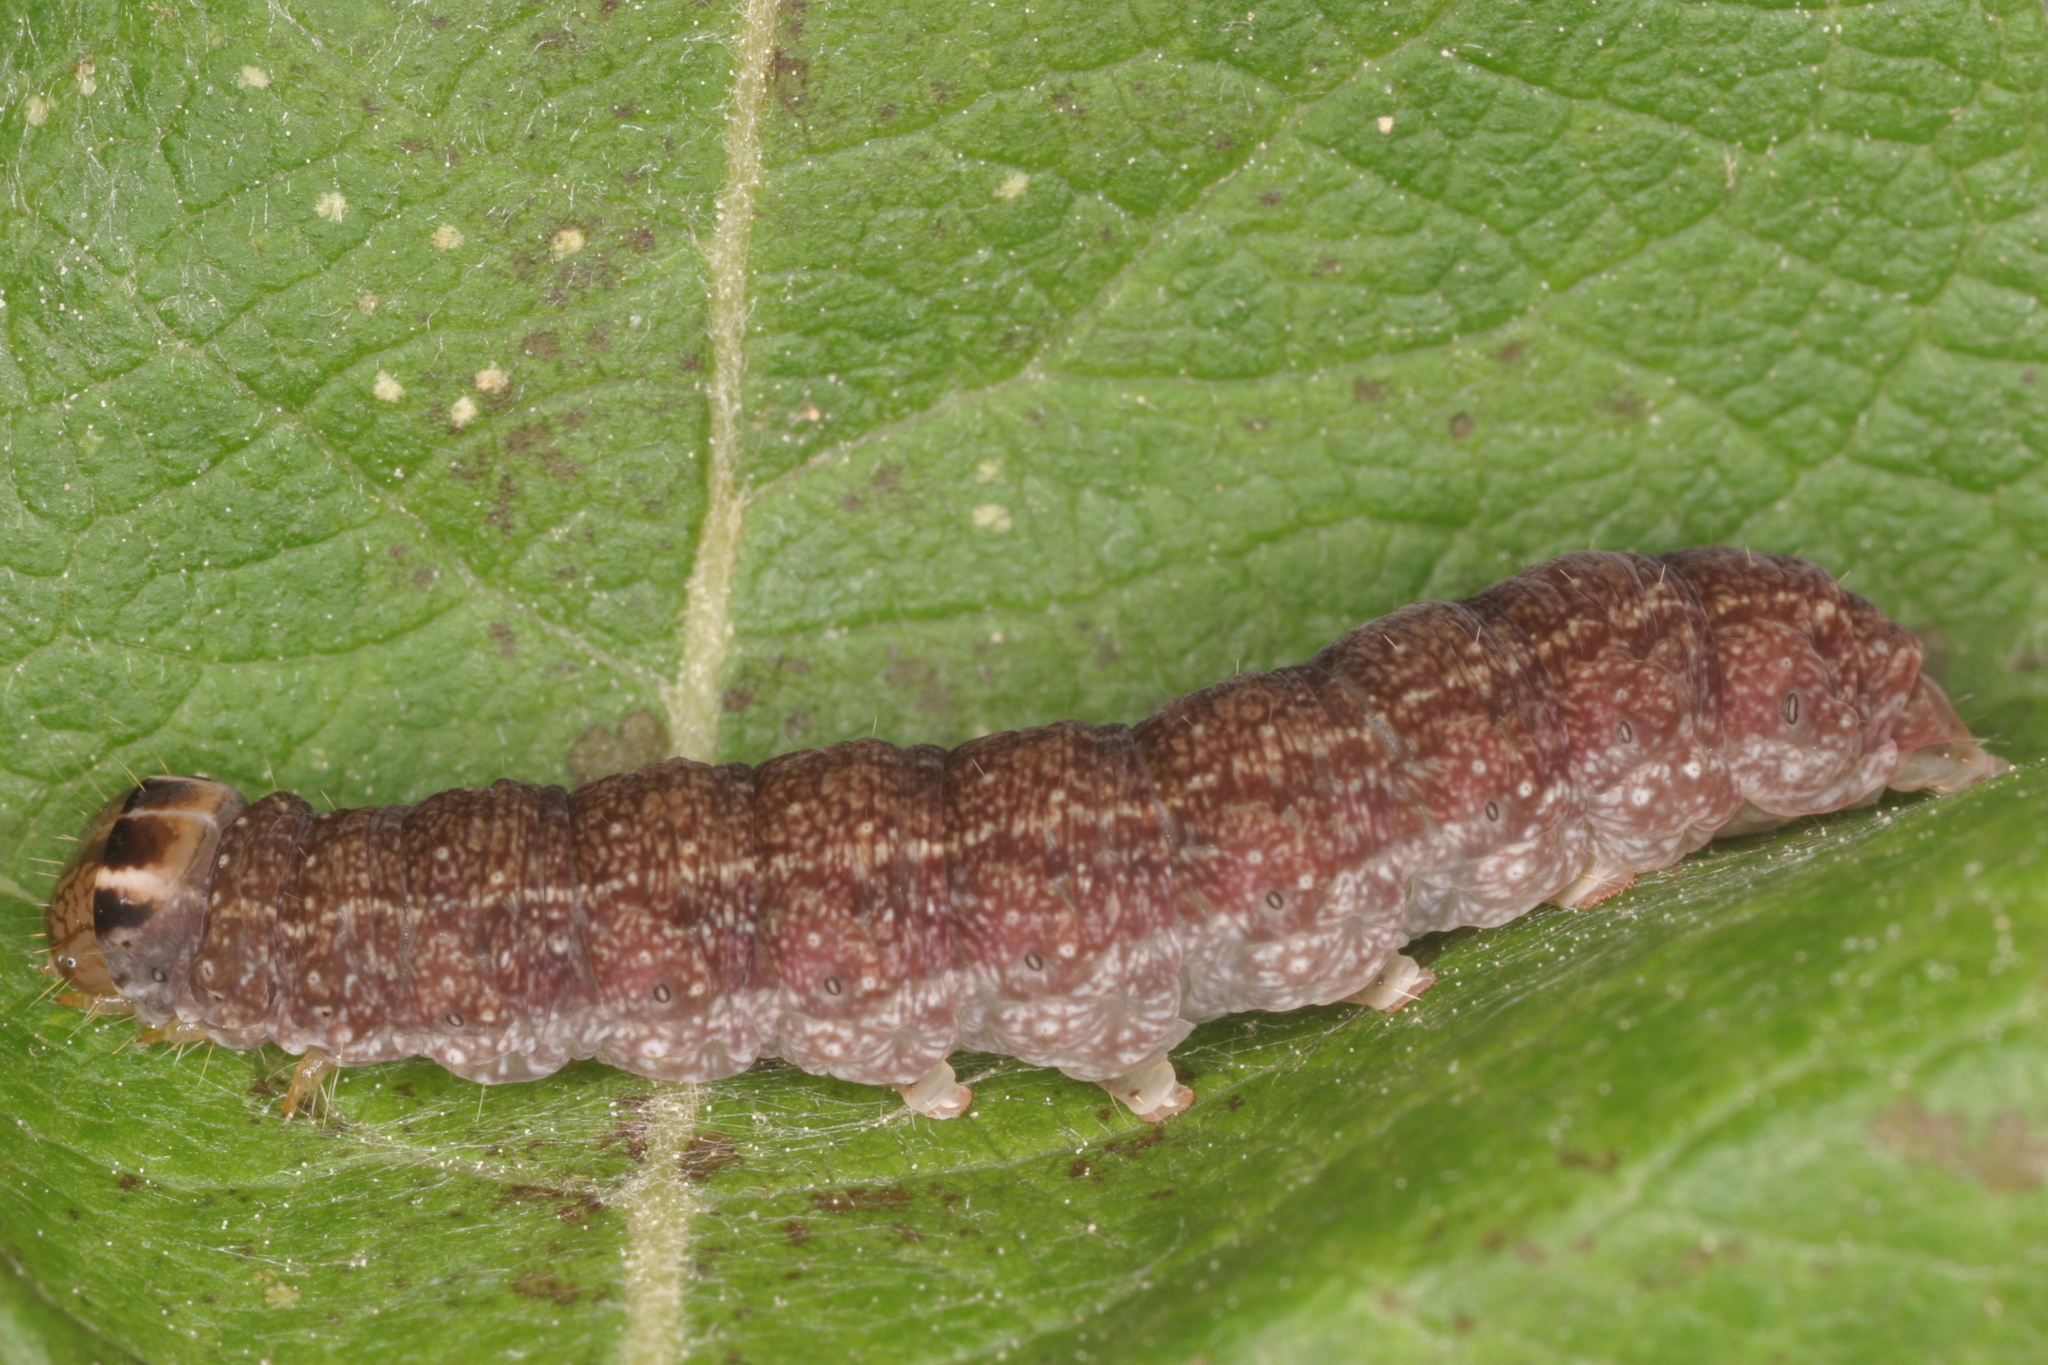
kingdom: Animalia
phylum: Arthropoda
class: Insecta
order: Lepidoptera
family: Noctuidae
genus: Conistra
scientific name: Conistra vaccinii
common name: Chestnut
